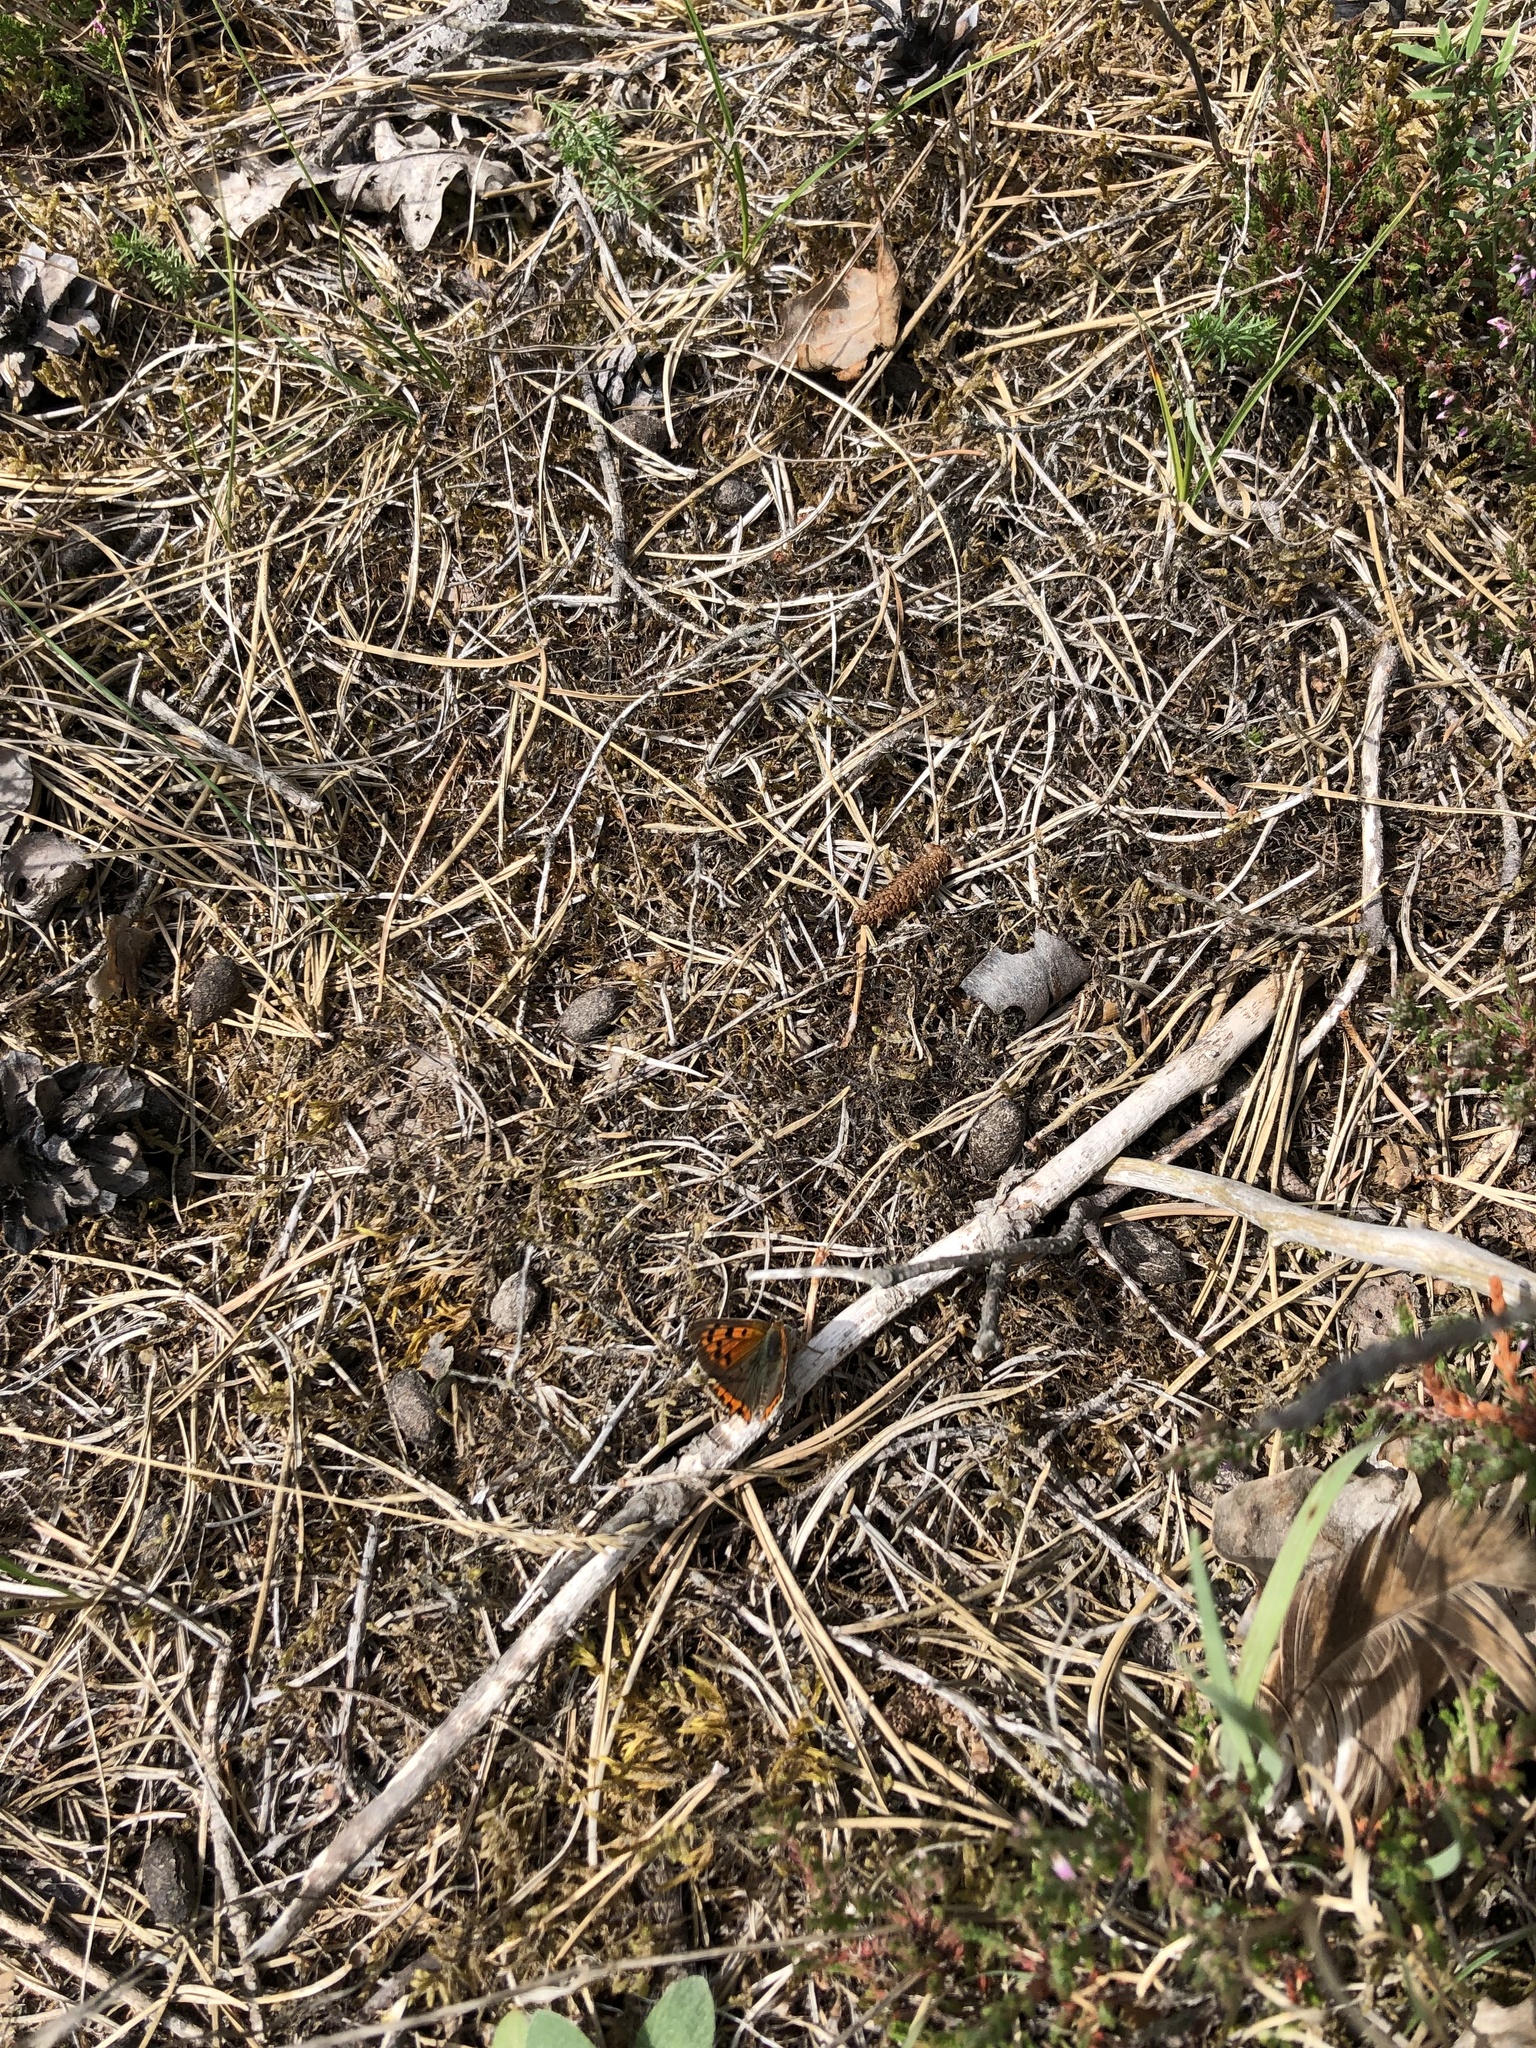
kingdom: Animalia
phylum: Arthropoda
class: Insecta
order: Lepidoptera
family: Lycaenidae
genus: Lycaena
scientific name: Lycaena phlaeas
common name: Small copper
